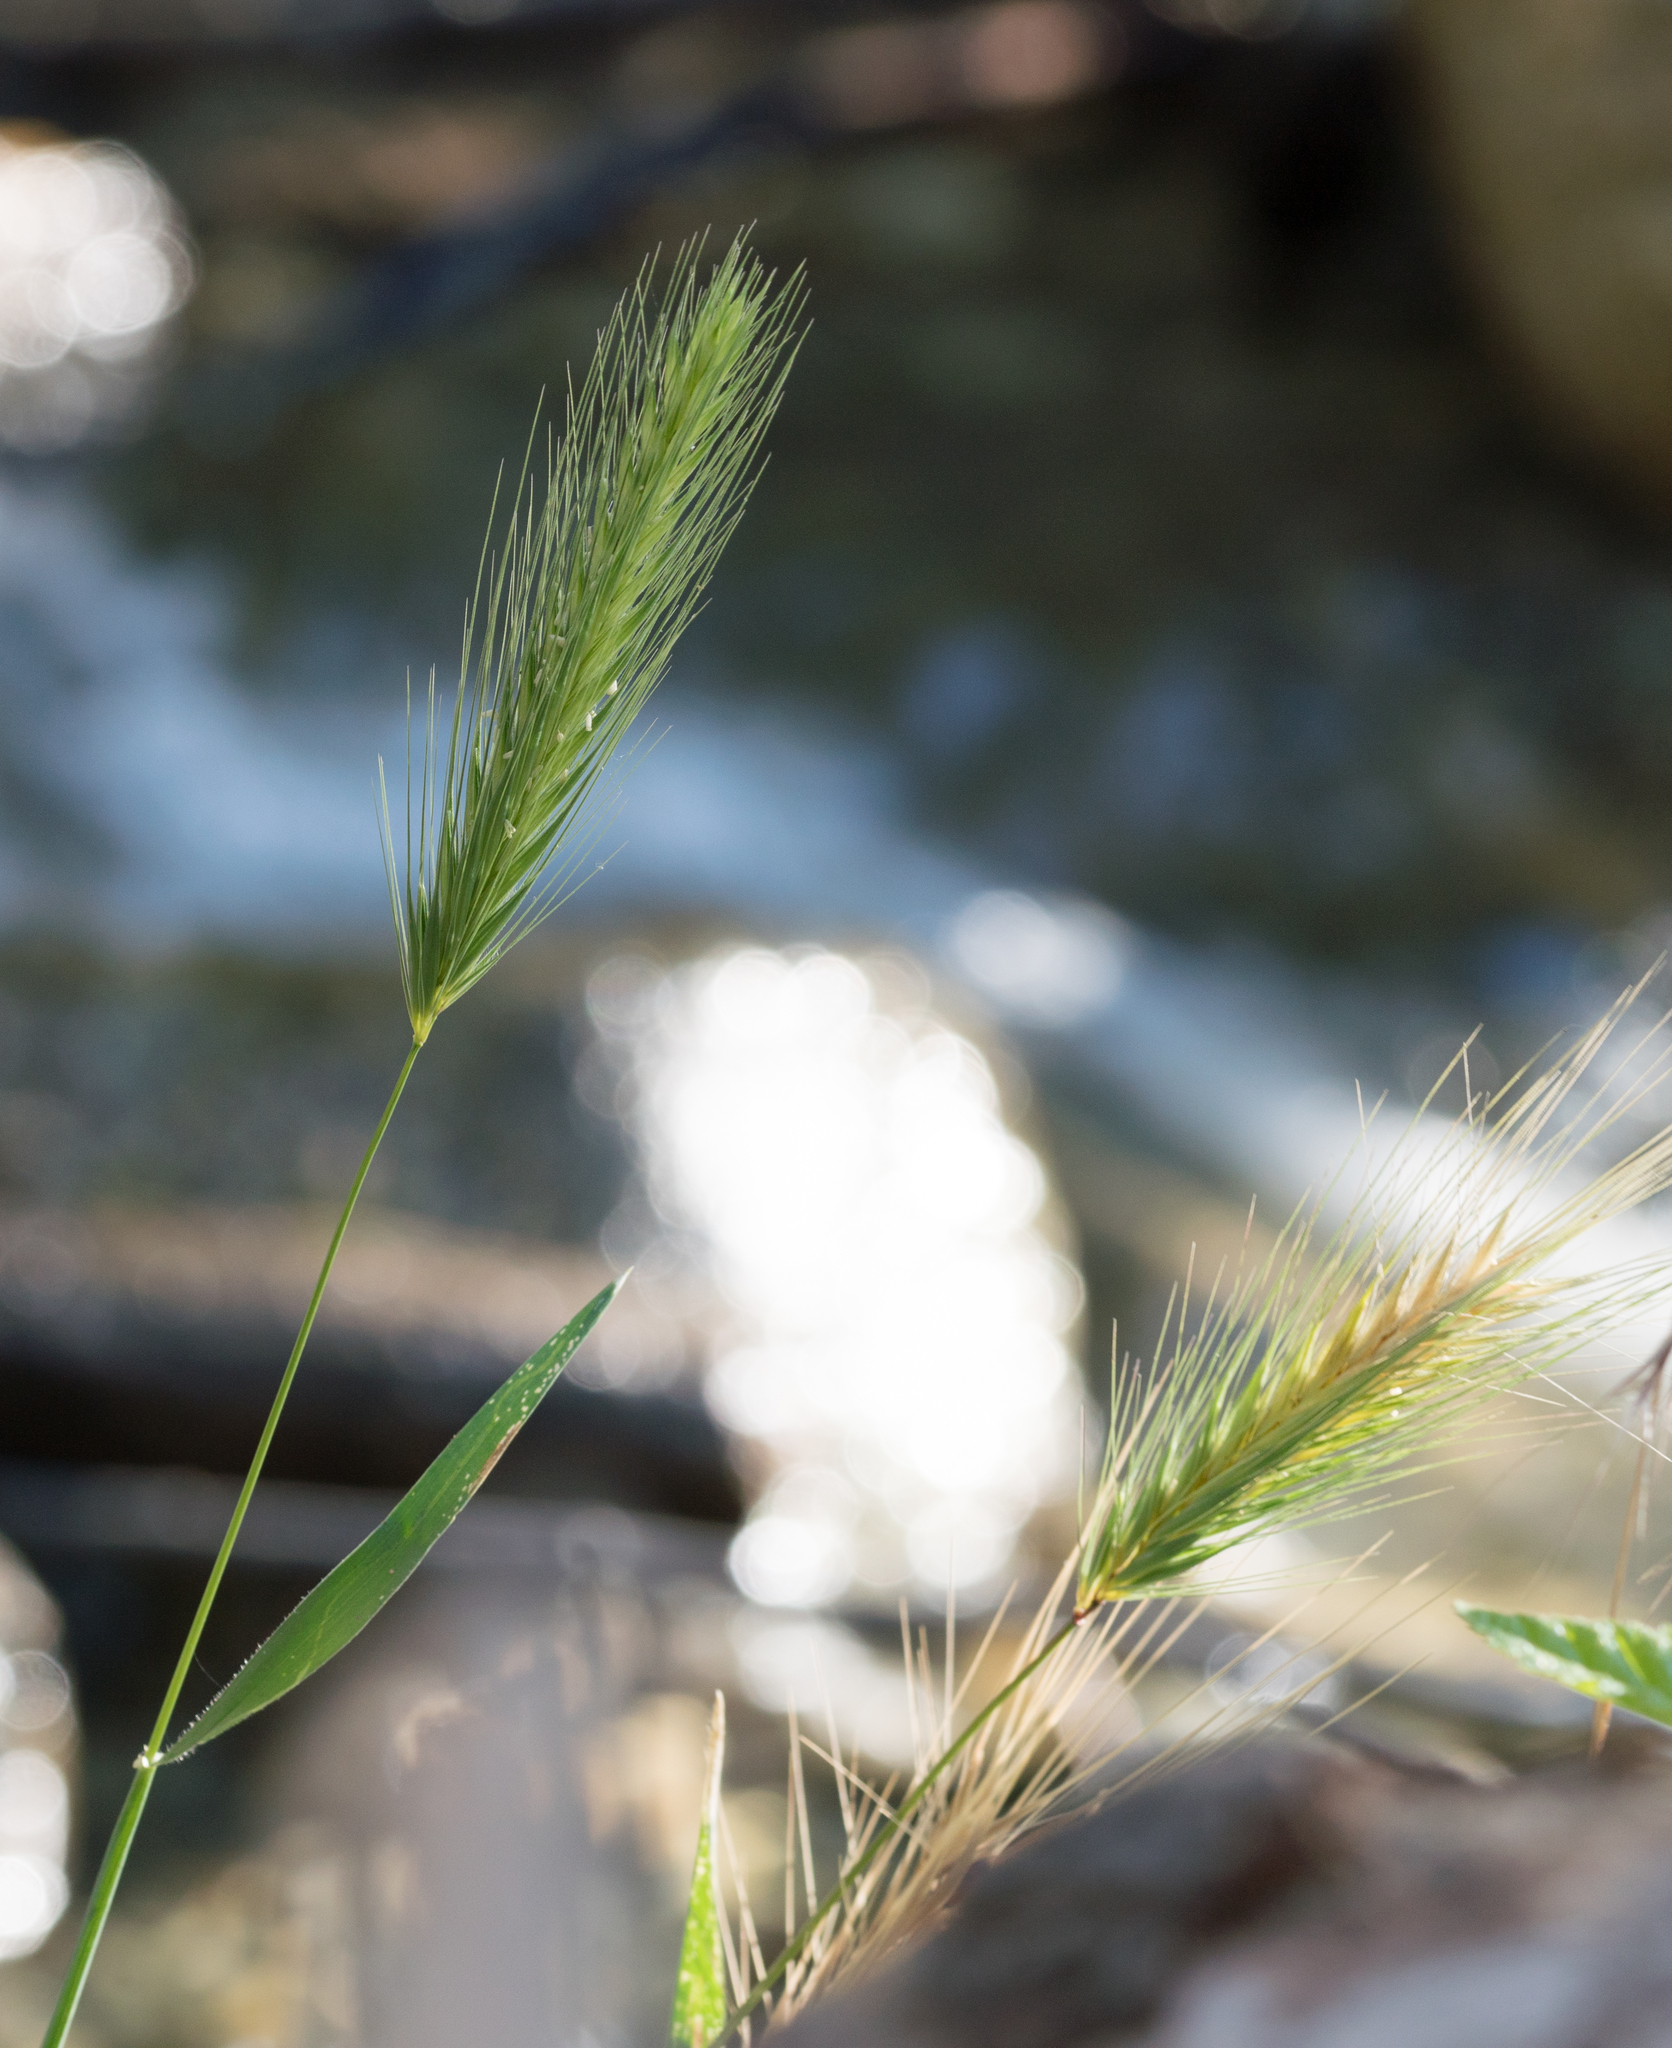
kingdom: Plantae
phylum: Tracheophyta
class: Liliopsida
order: Poales
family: Poaceae
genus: Hordeum
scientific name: Hordeum murinum
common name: Wall barley
